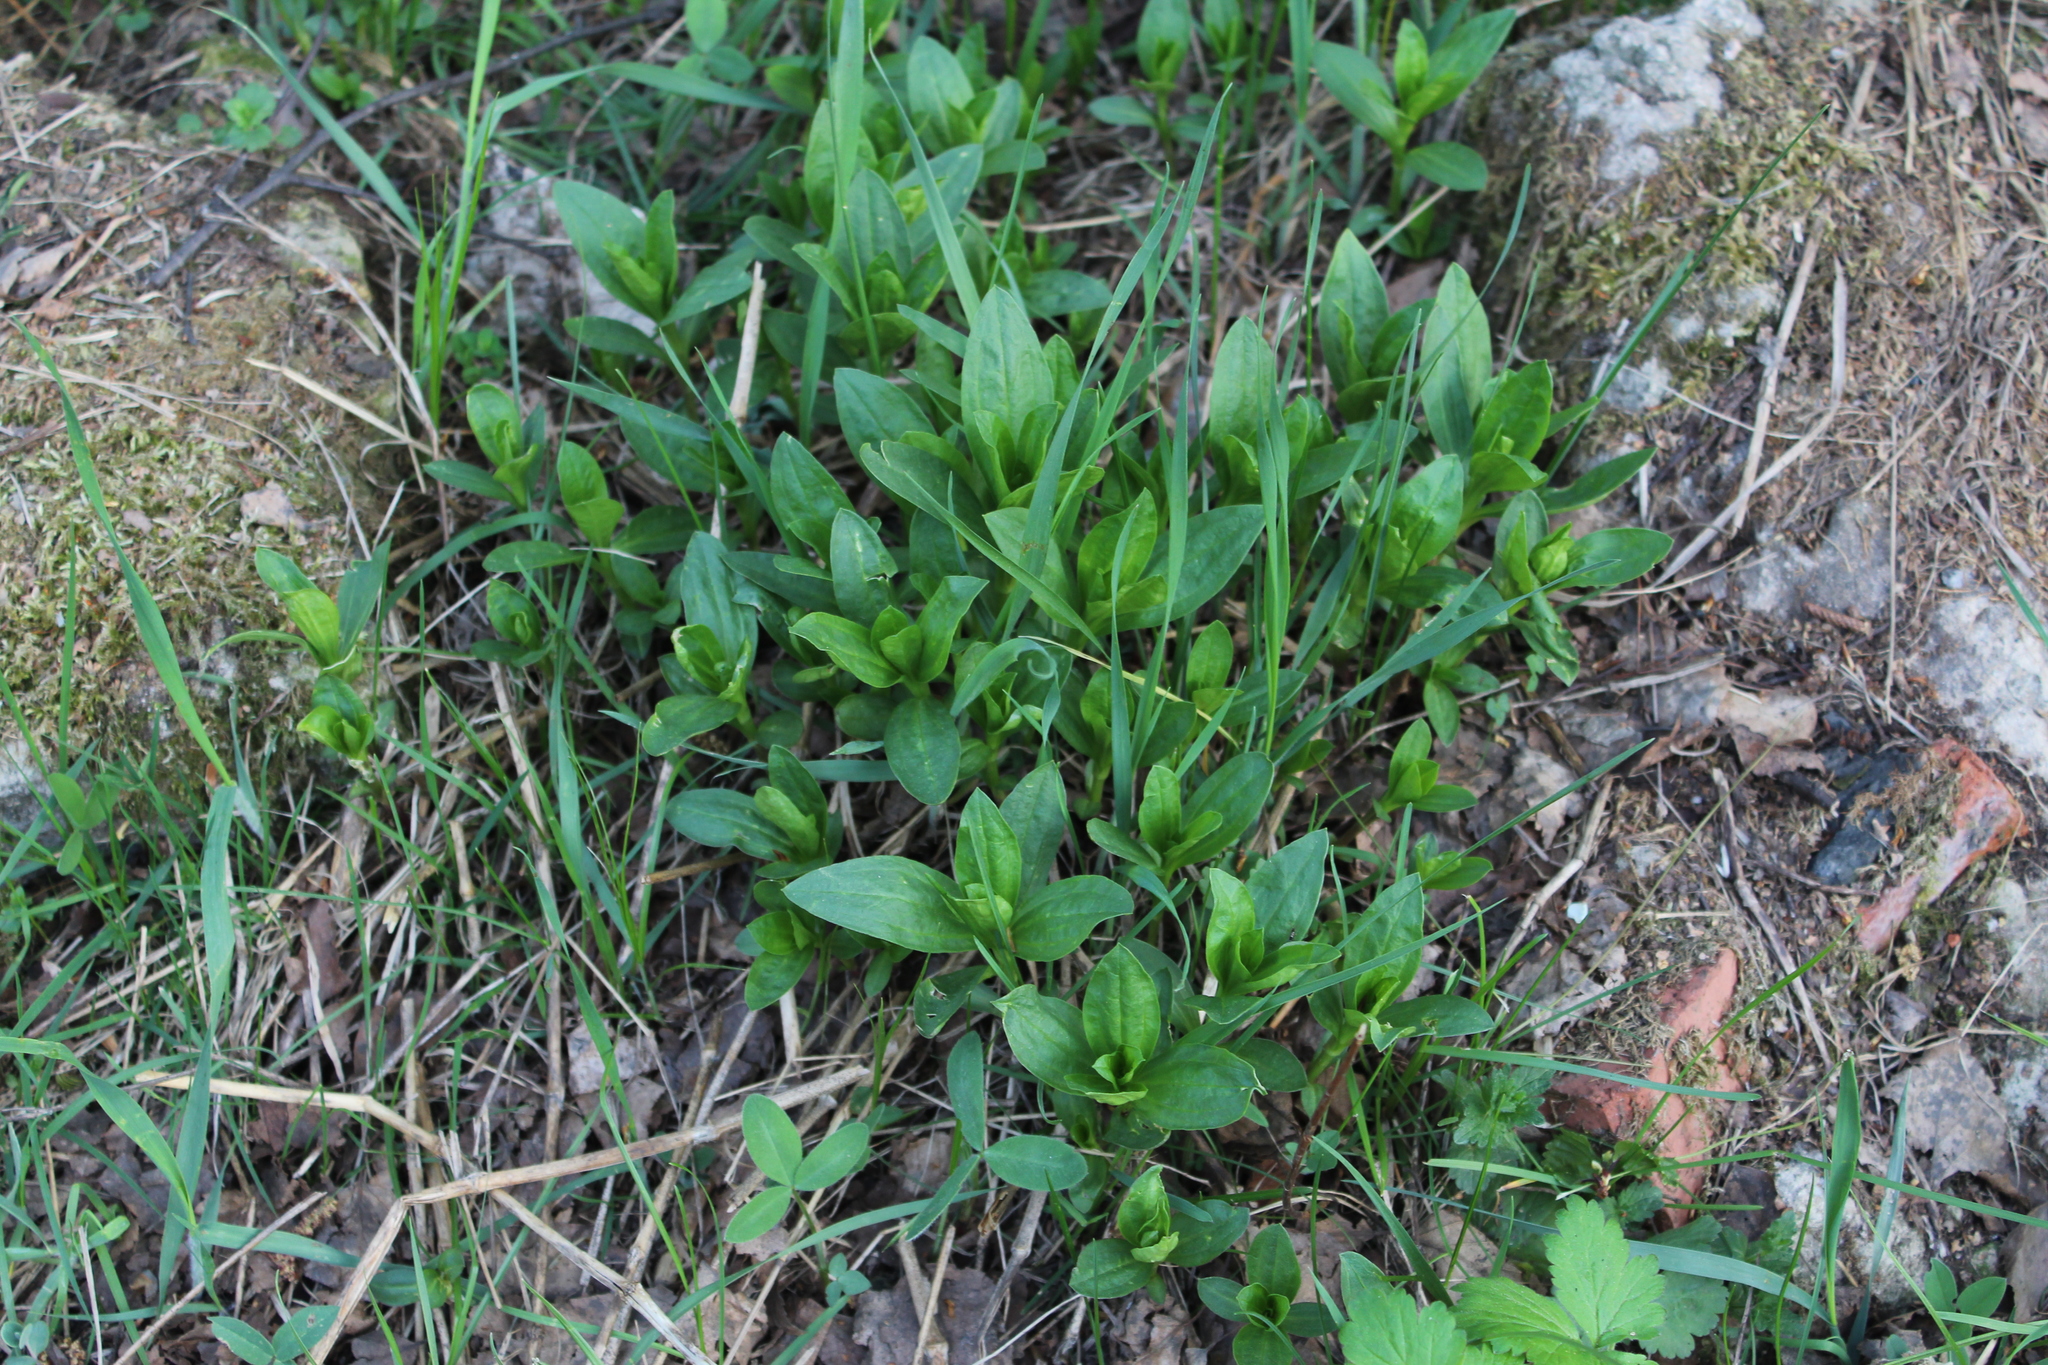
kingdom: Plantae
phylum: Tracheophyta
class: Magnoliopsida
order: Caryophyllales
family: Caryophyllaceae
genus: Saponaria
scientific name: Saponaria officinalis
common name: Soapwort
